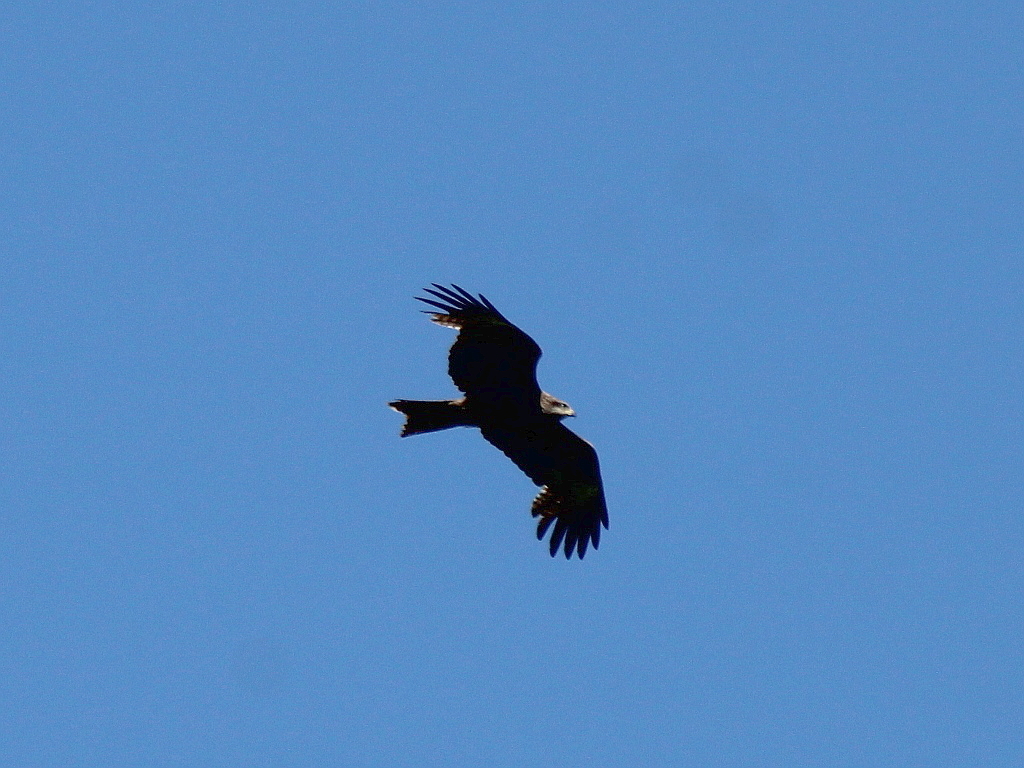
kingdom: Animalia
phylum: Chordata
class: Aves
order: Accipitriformes
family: Accipitridae
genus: Milvus
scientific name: Milvus migrans
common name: Black kite
